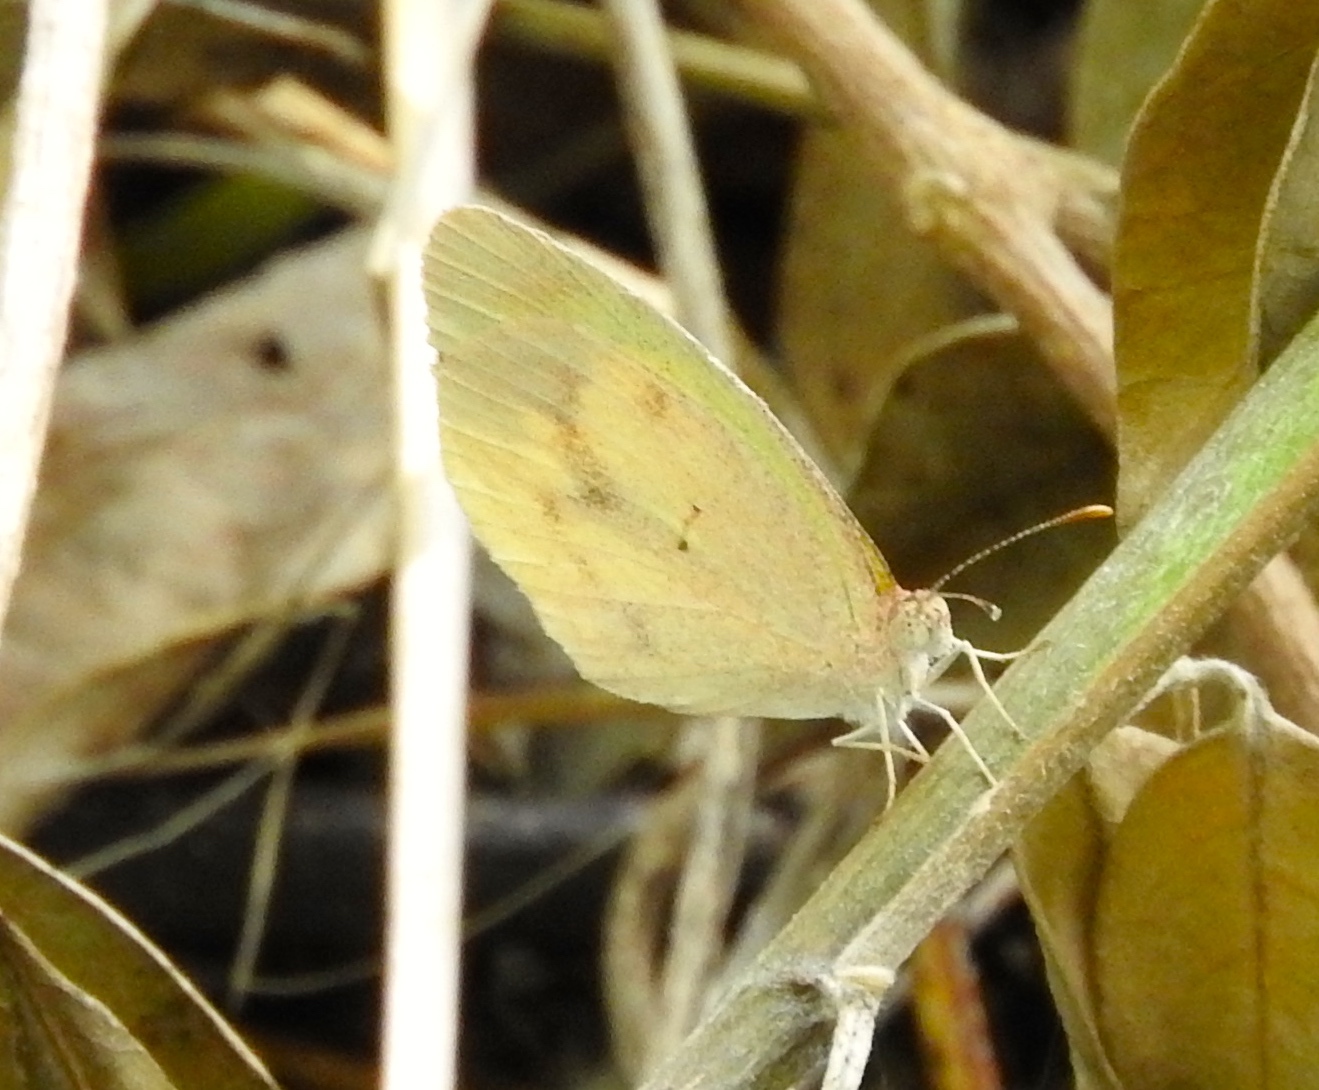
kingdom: Animalia
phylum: Arthropoda
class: Insecta
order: Lepidoptera
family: Pieridae
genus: Eurema
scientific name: Eurema daira
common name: Barred sulphur
